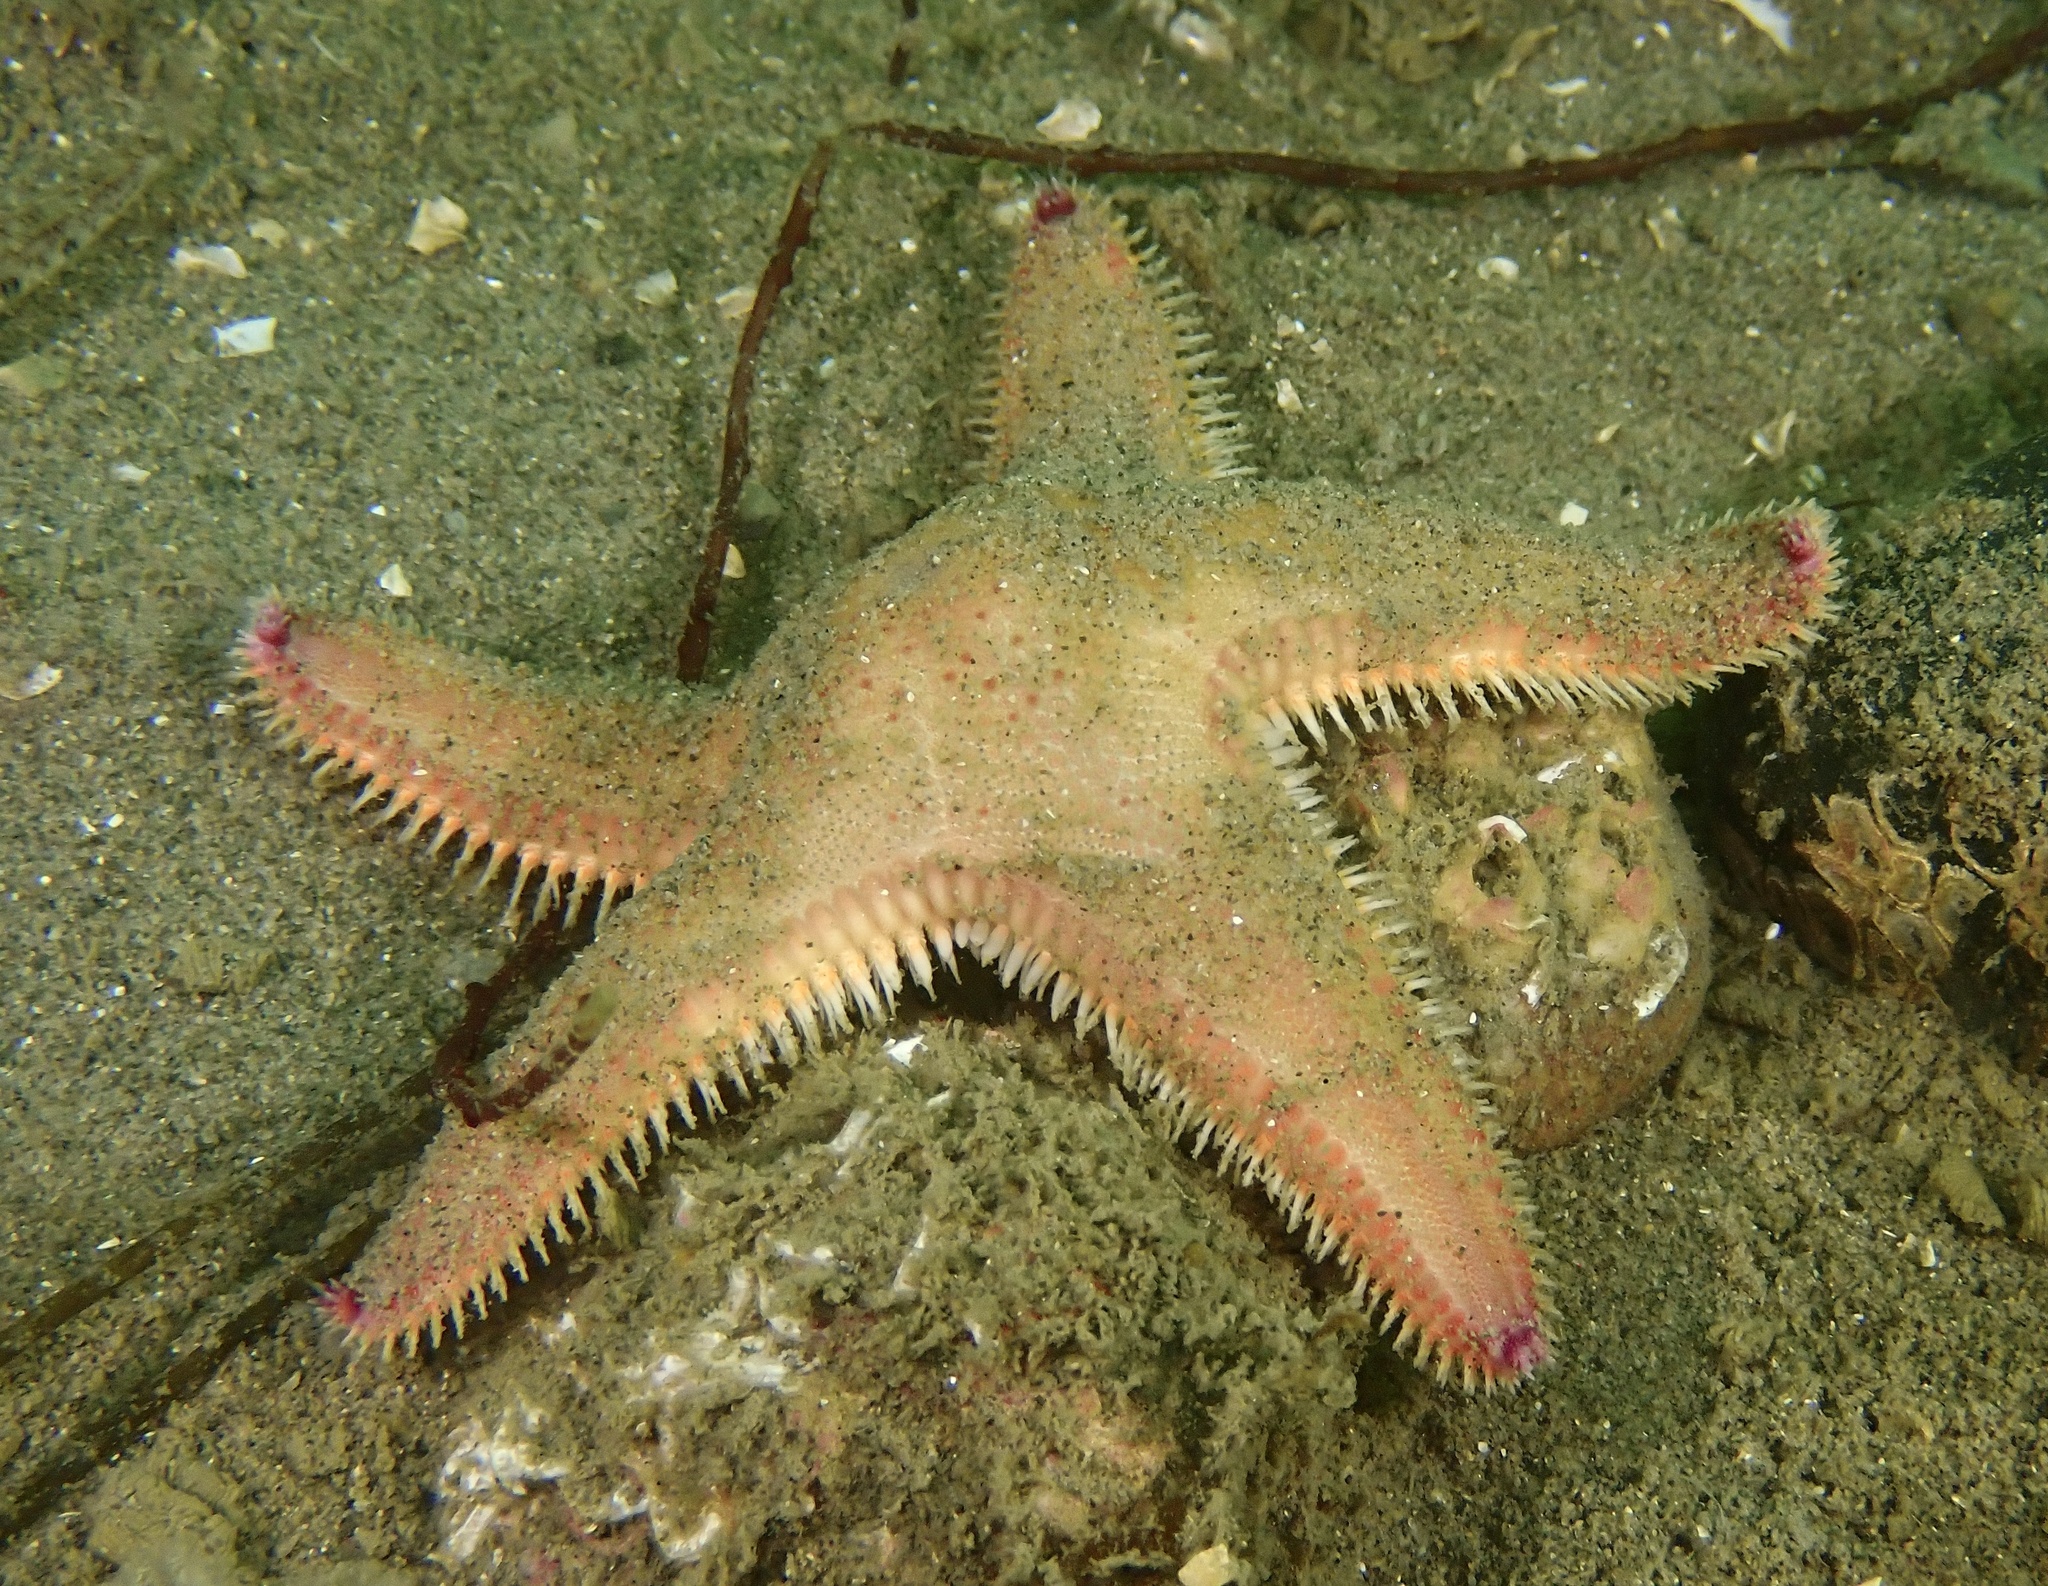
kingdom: Animalia
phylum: Echinodermata
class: Asteroidea
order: Paxillosida
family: Astropectinidae
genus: Astropecten
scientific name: Astropecten irregularis
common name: Sand star
